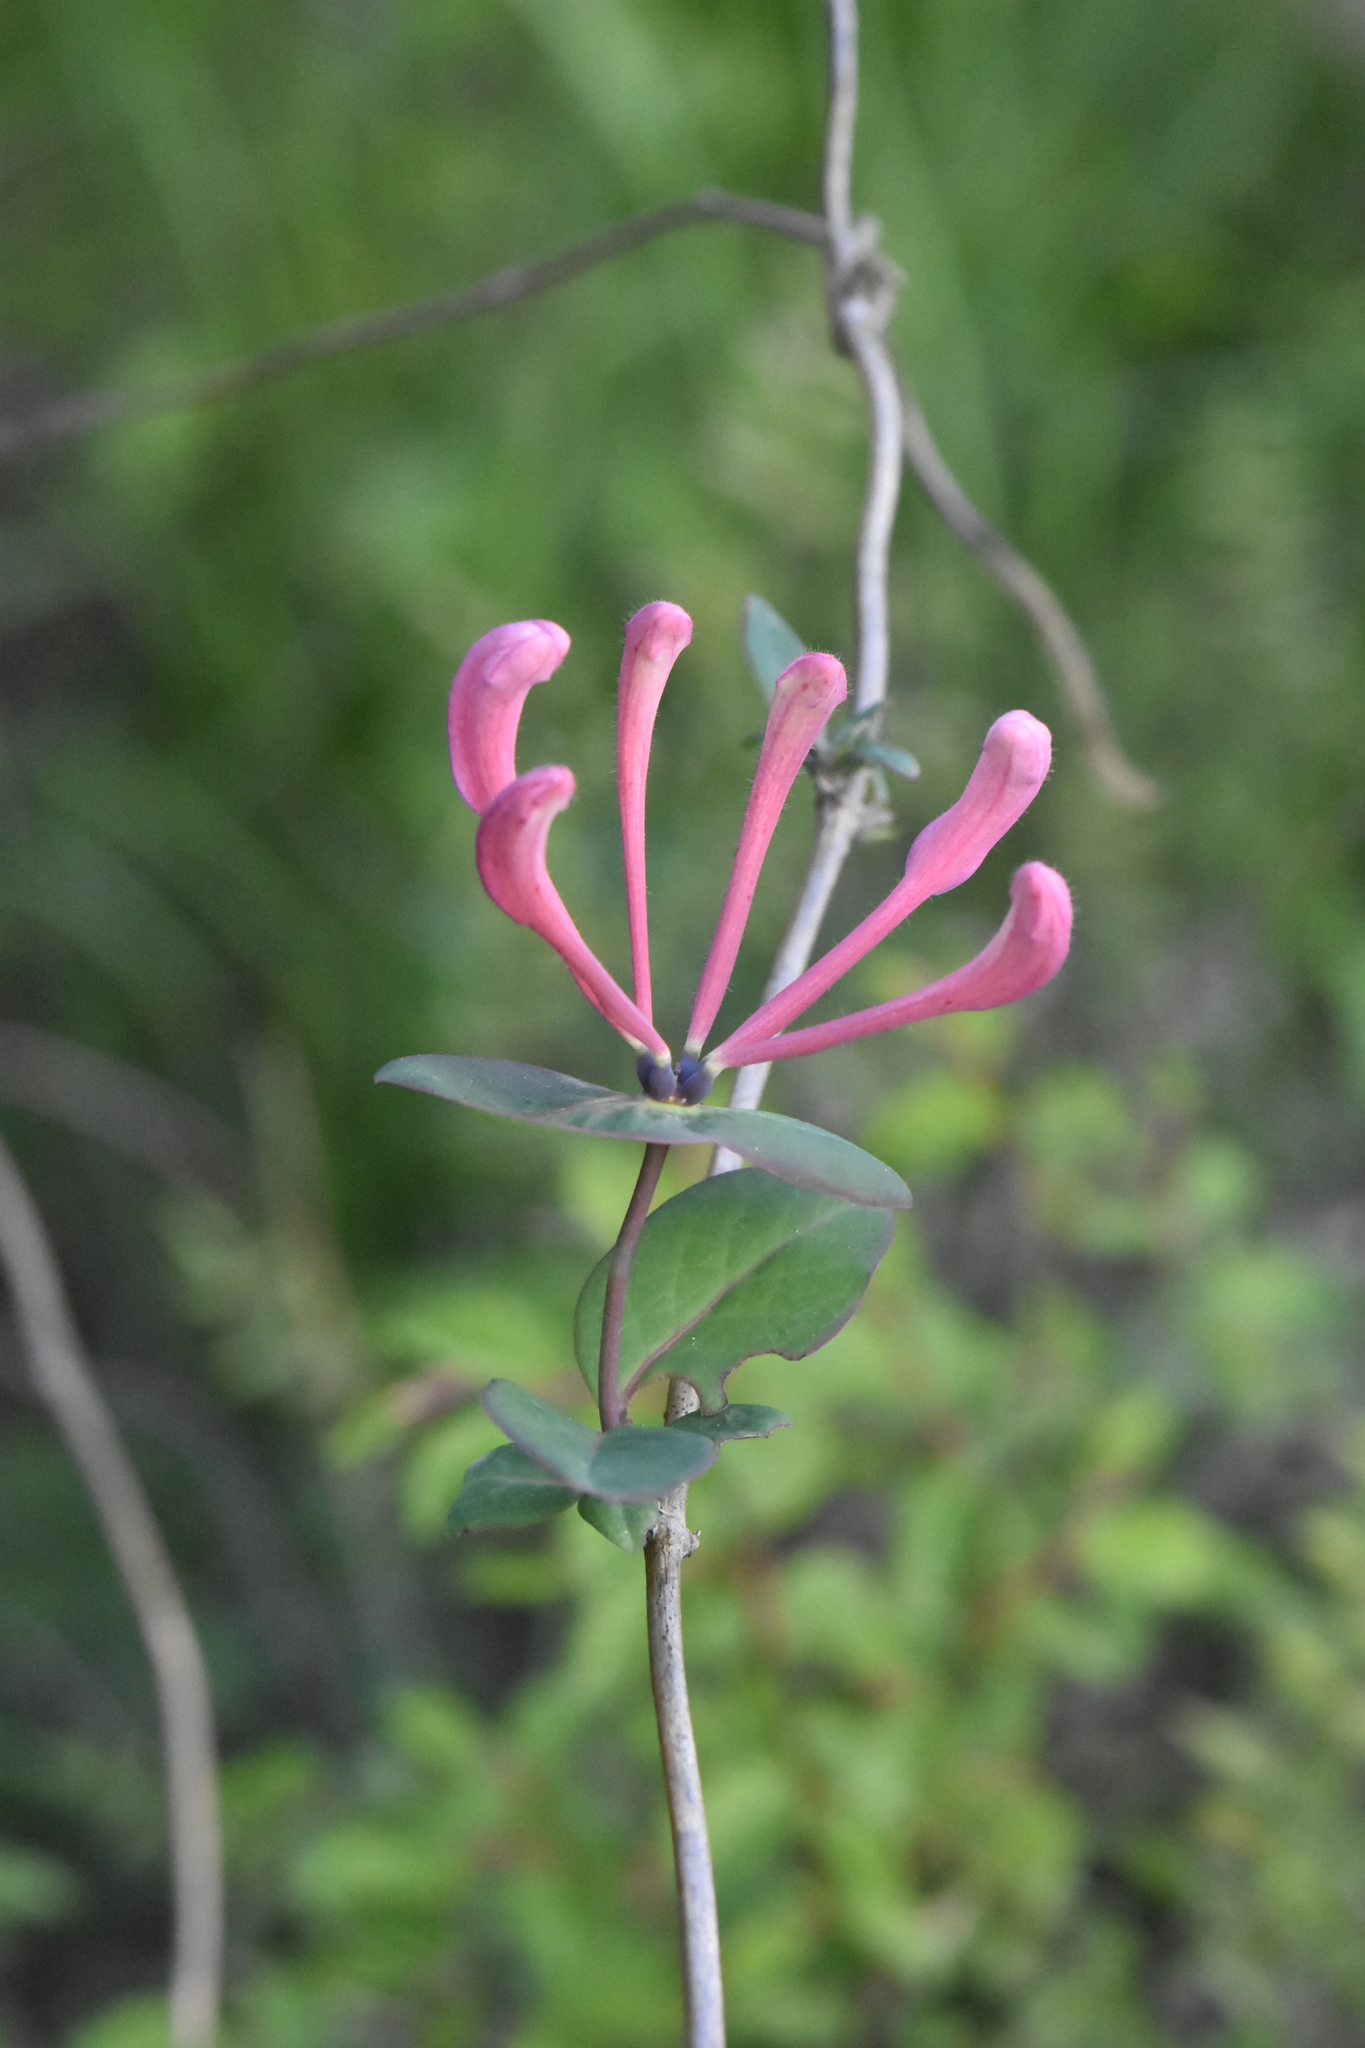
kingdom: Plantae
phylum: Tracheophyta
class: Magnoliopsida
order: Dipsacales
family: Caprifoliaceae
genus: Lonicera
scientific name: Lonicera caprifolium
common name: Perfoliate honeysuckle
